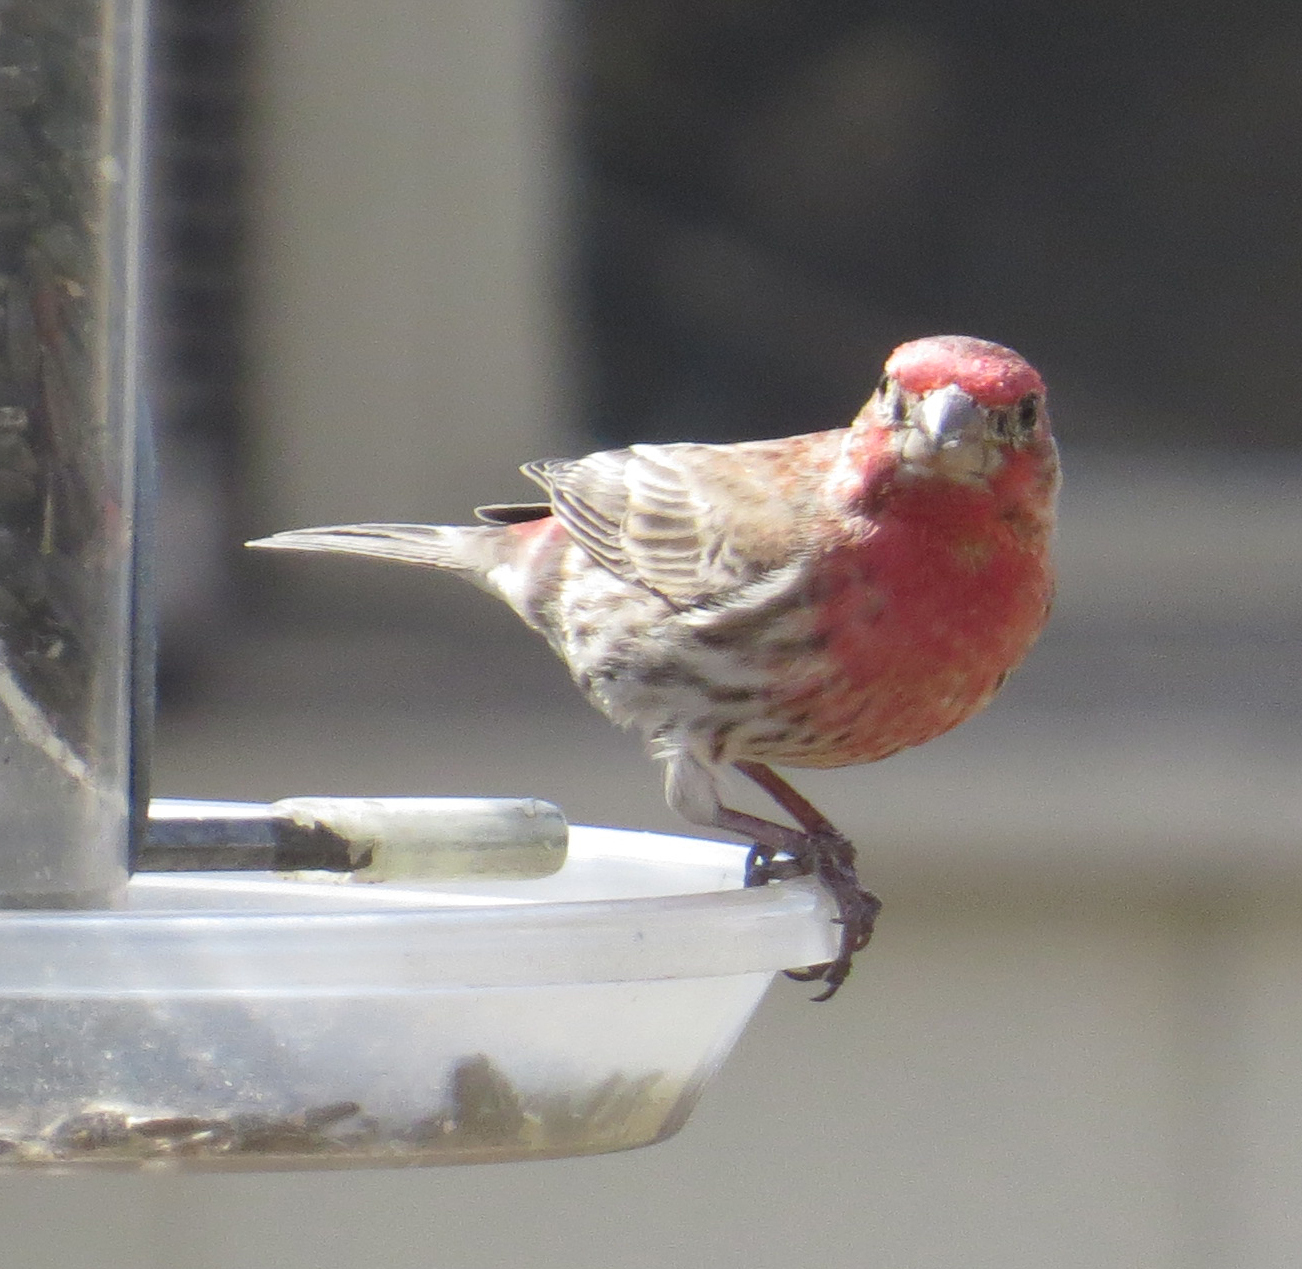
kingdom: Animalia
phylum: Chordata
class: Aves
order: Passeriformes
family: Fringillidae
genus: Haemorhous
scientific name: Haemorhous mexicanus
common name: House finch
